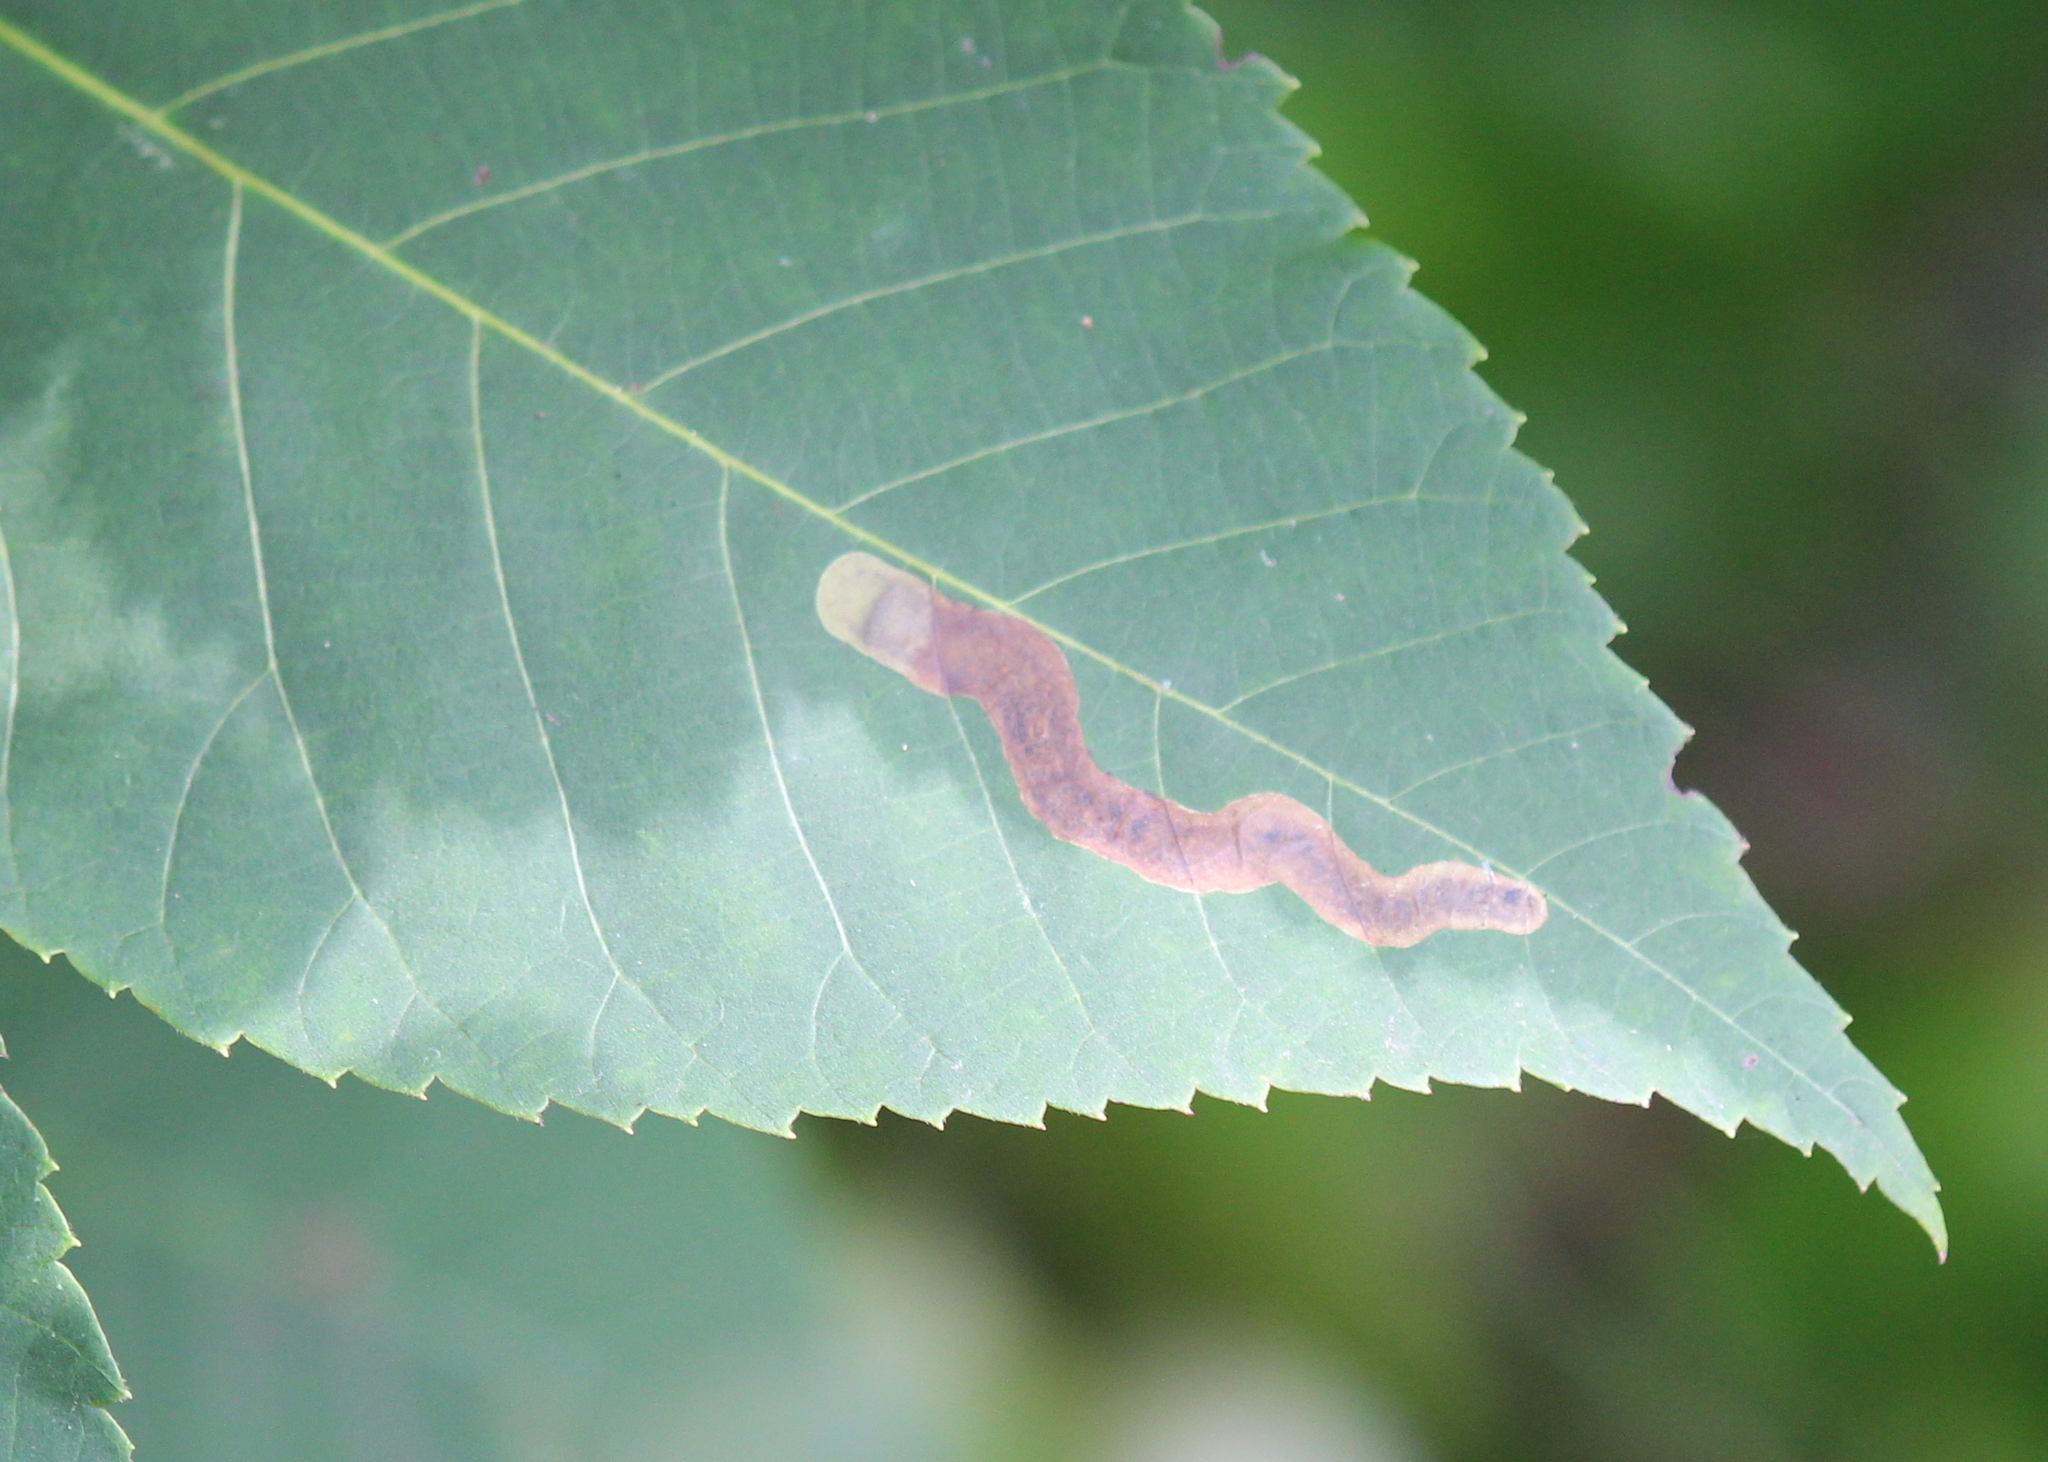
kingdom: Animalia
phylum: Arthropoda
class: Insecta
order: Lepidoptera
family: Gracillariidae
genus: Cameraria
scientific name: Cameraria caryaefoliella
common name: Pecan leafminer moth
